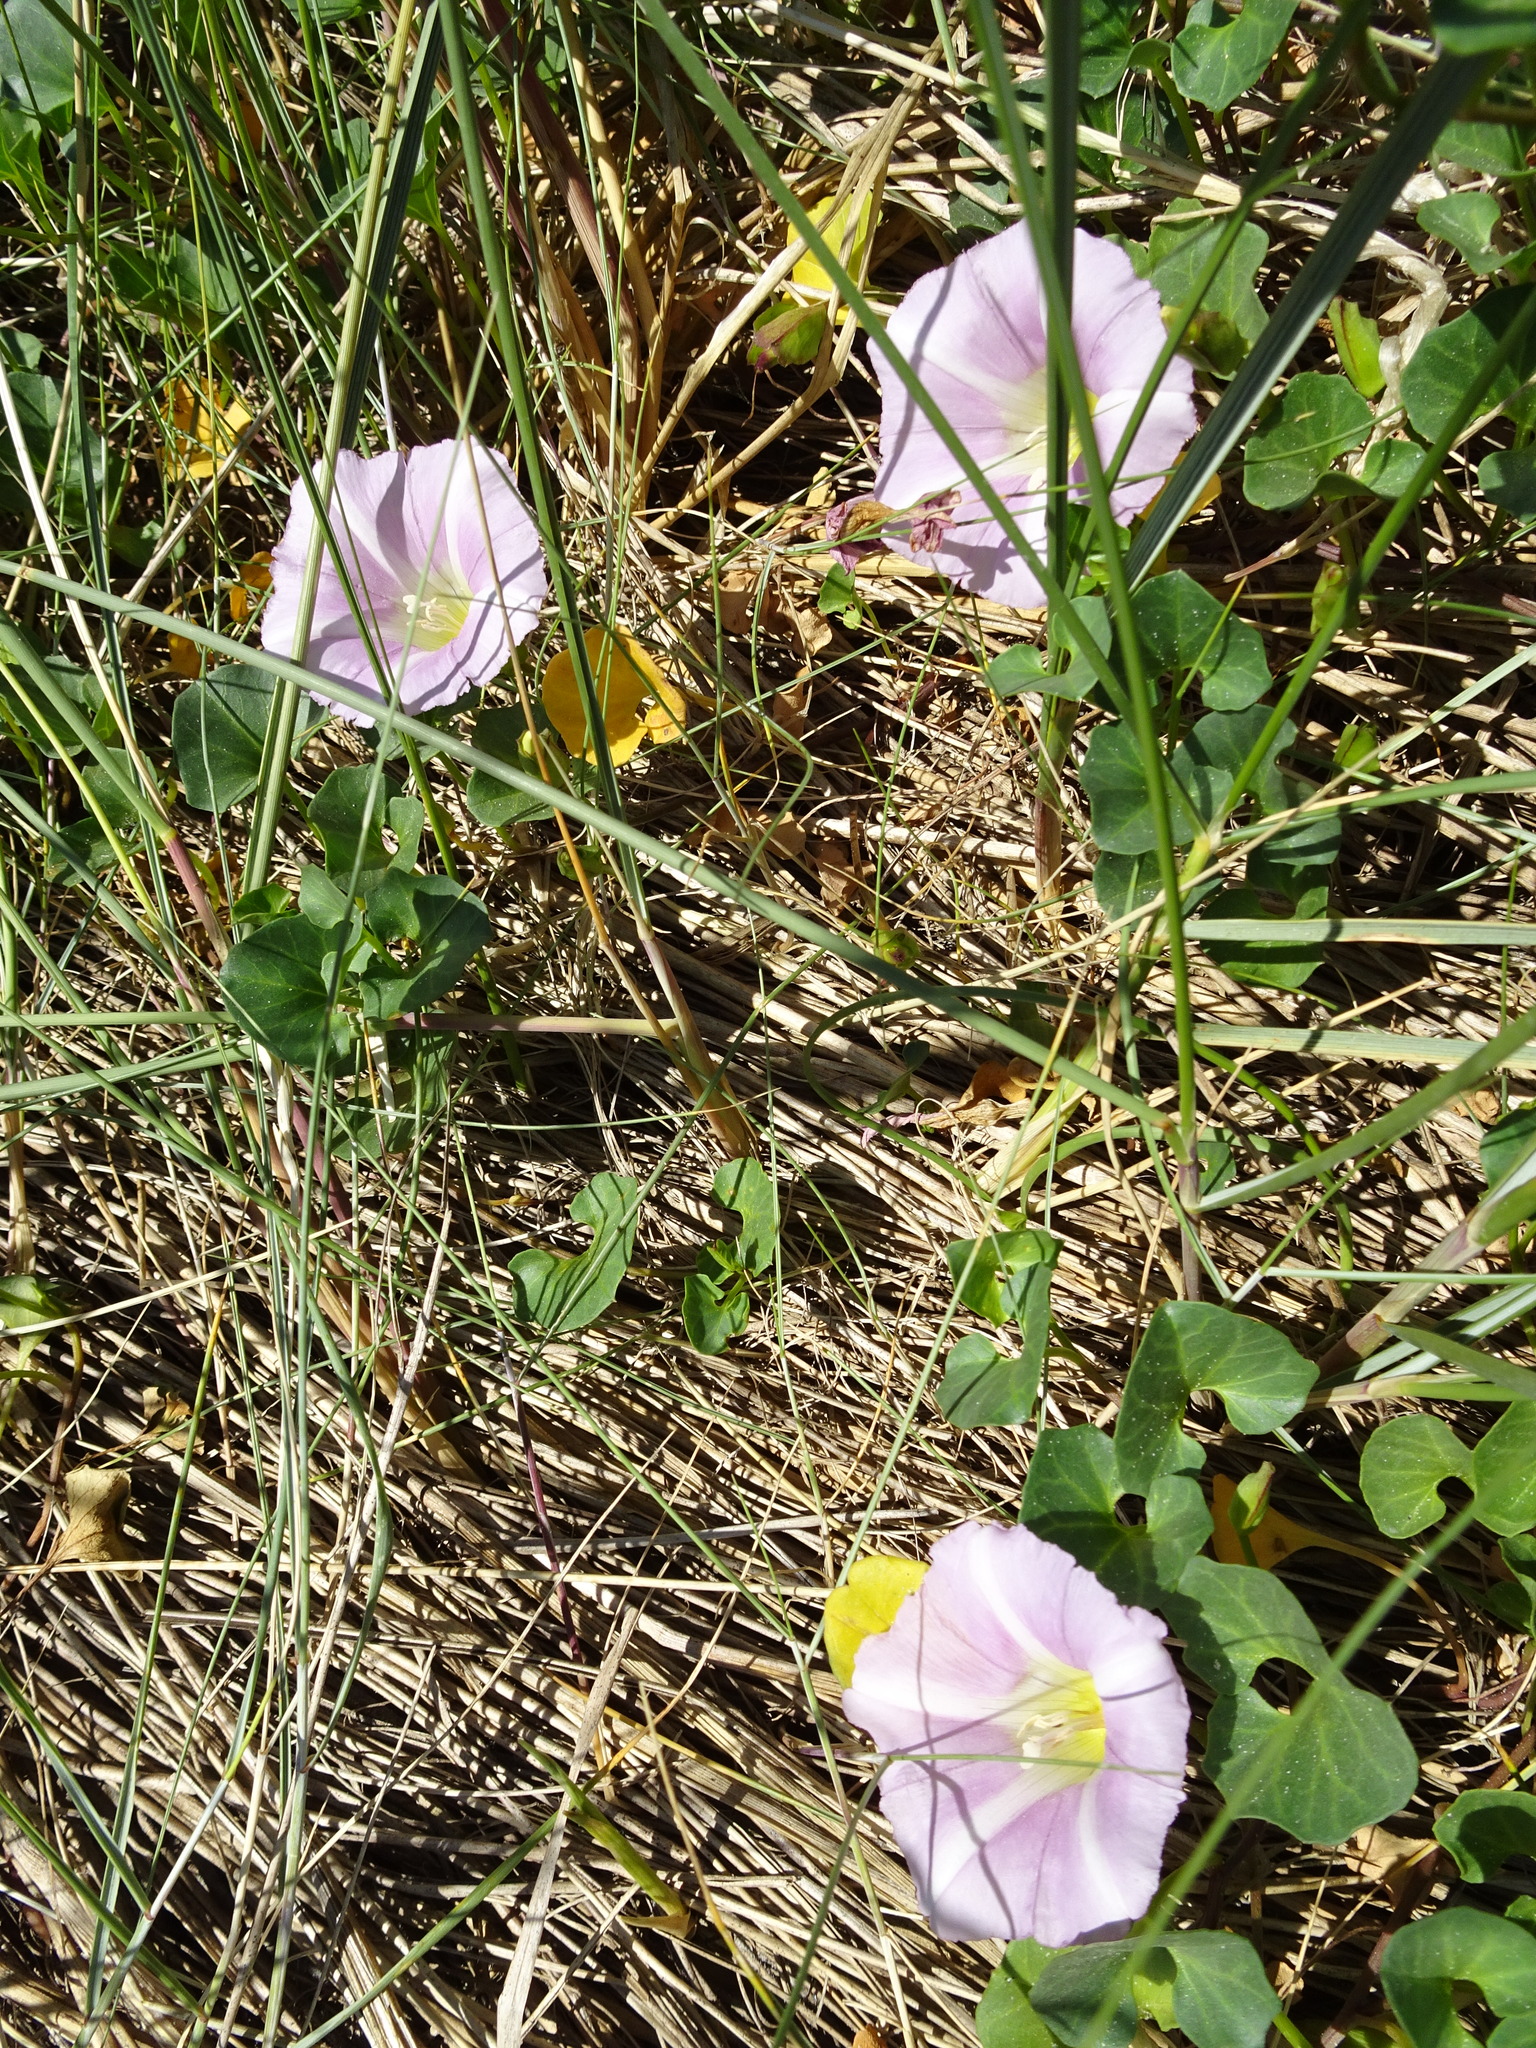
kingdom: Plantae
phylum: Tracheophyta
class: Magnoliopsida
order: Solanales
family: Convolvulaceae
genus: Calystegia
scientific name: Calystegia soldanella
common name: Sea bindweed
